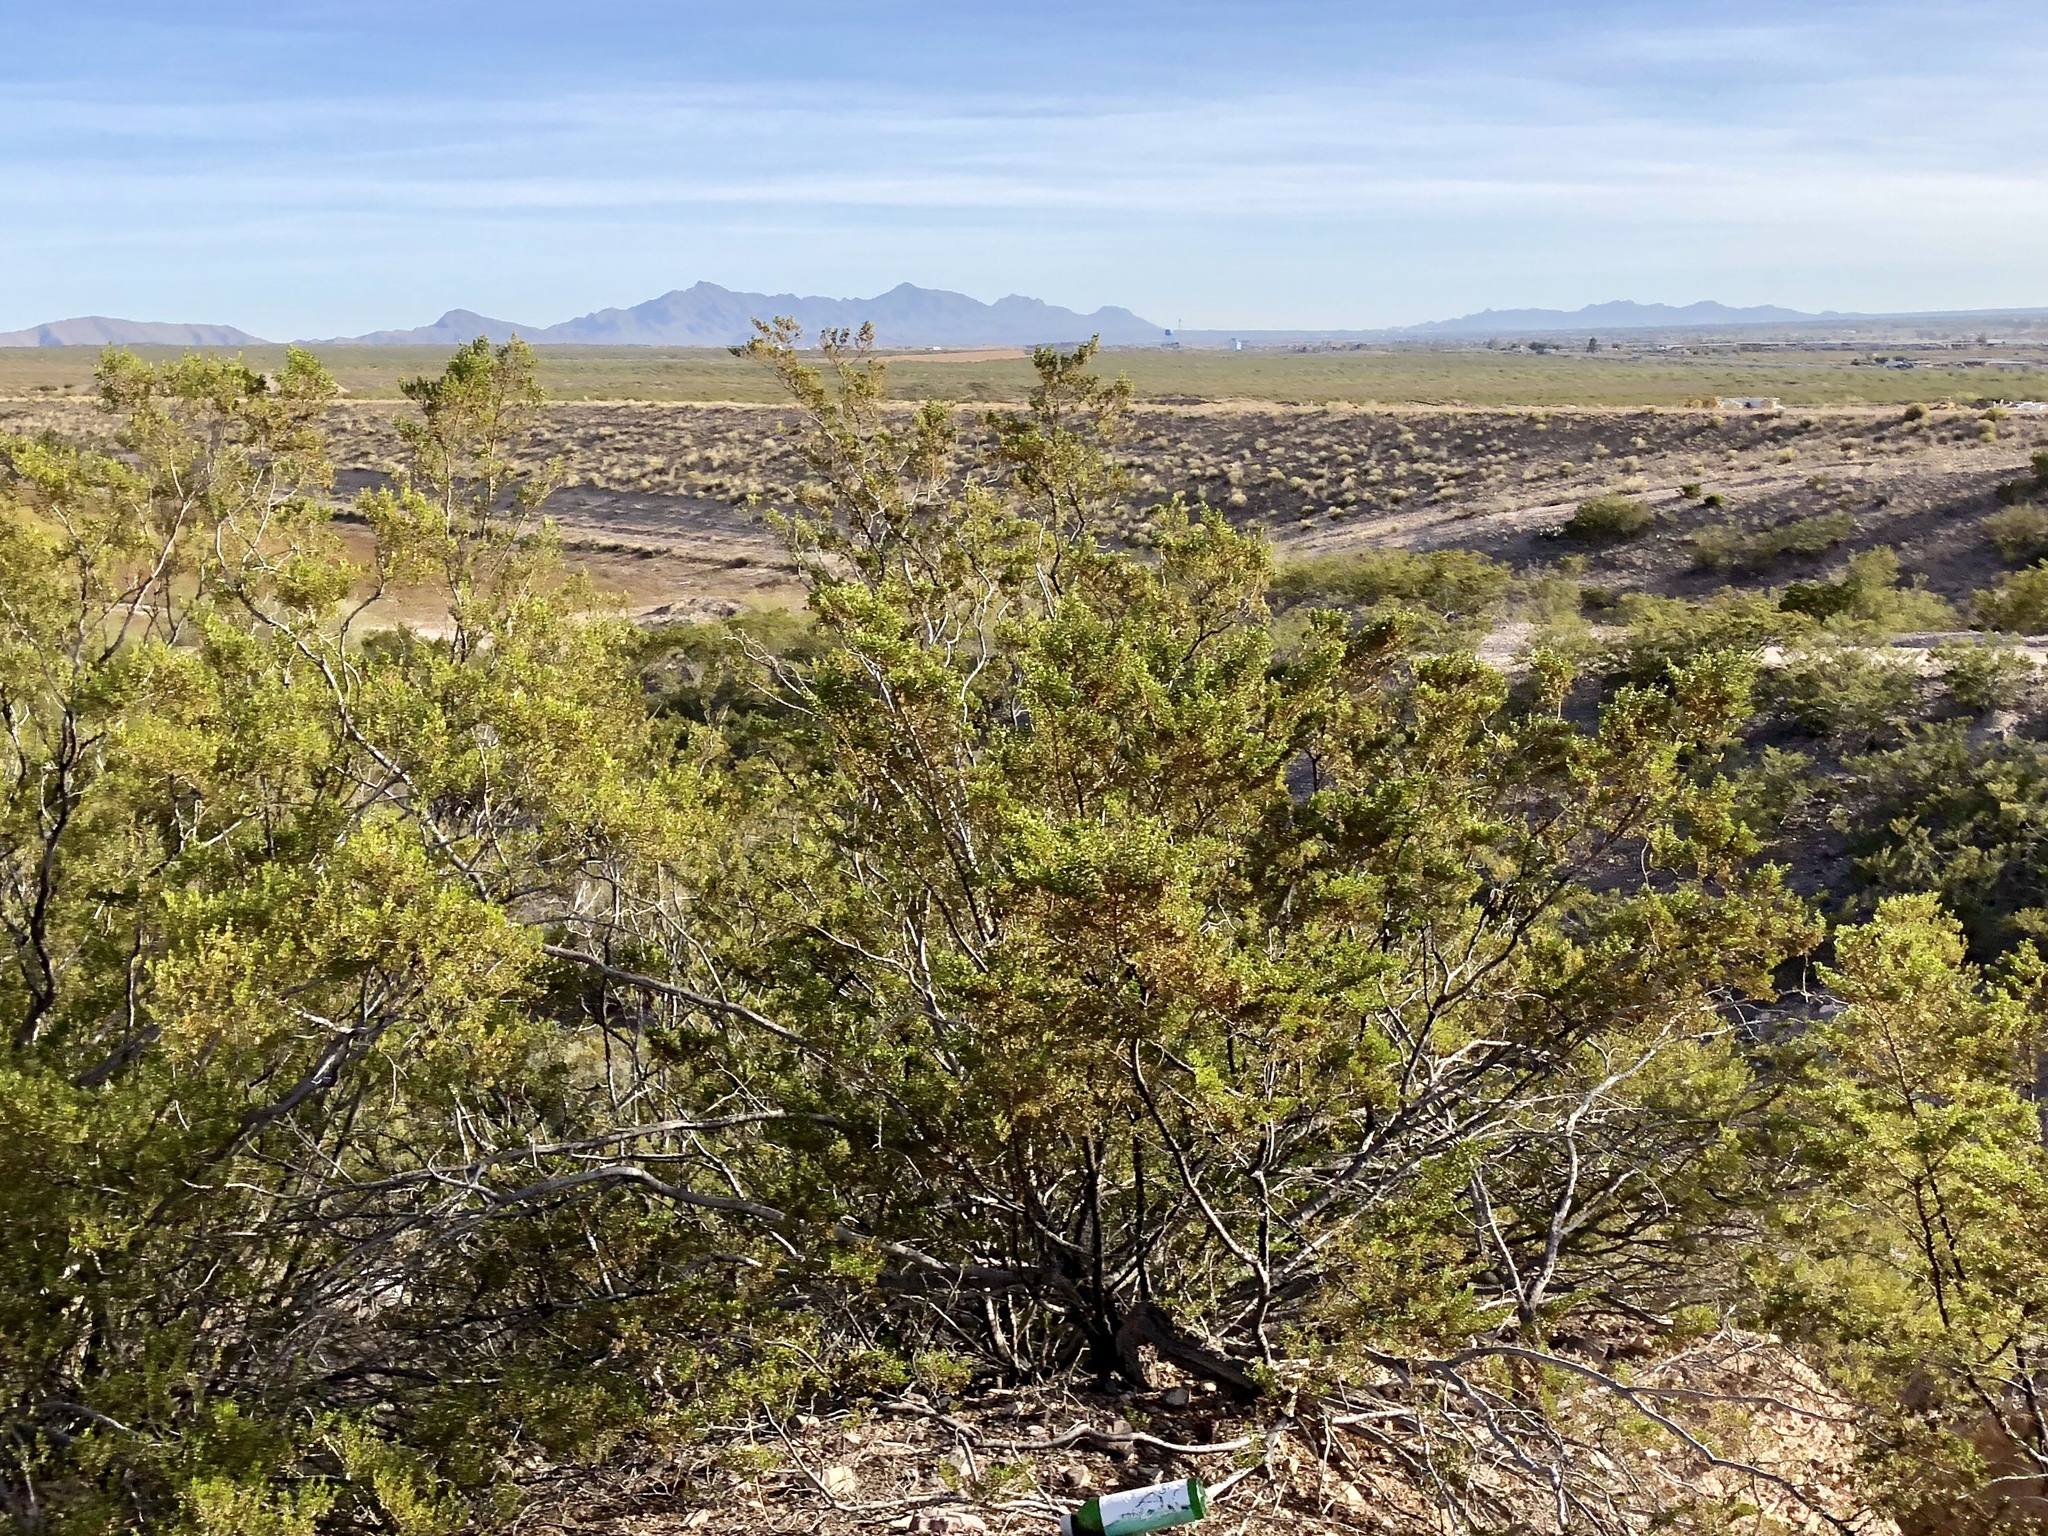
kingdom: Plantae
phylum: Tracheophyta
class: Magnoliopsida
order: Zygophyllales
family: Zygophyllaceae
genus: Larrea
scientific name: Larrea tridentata
